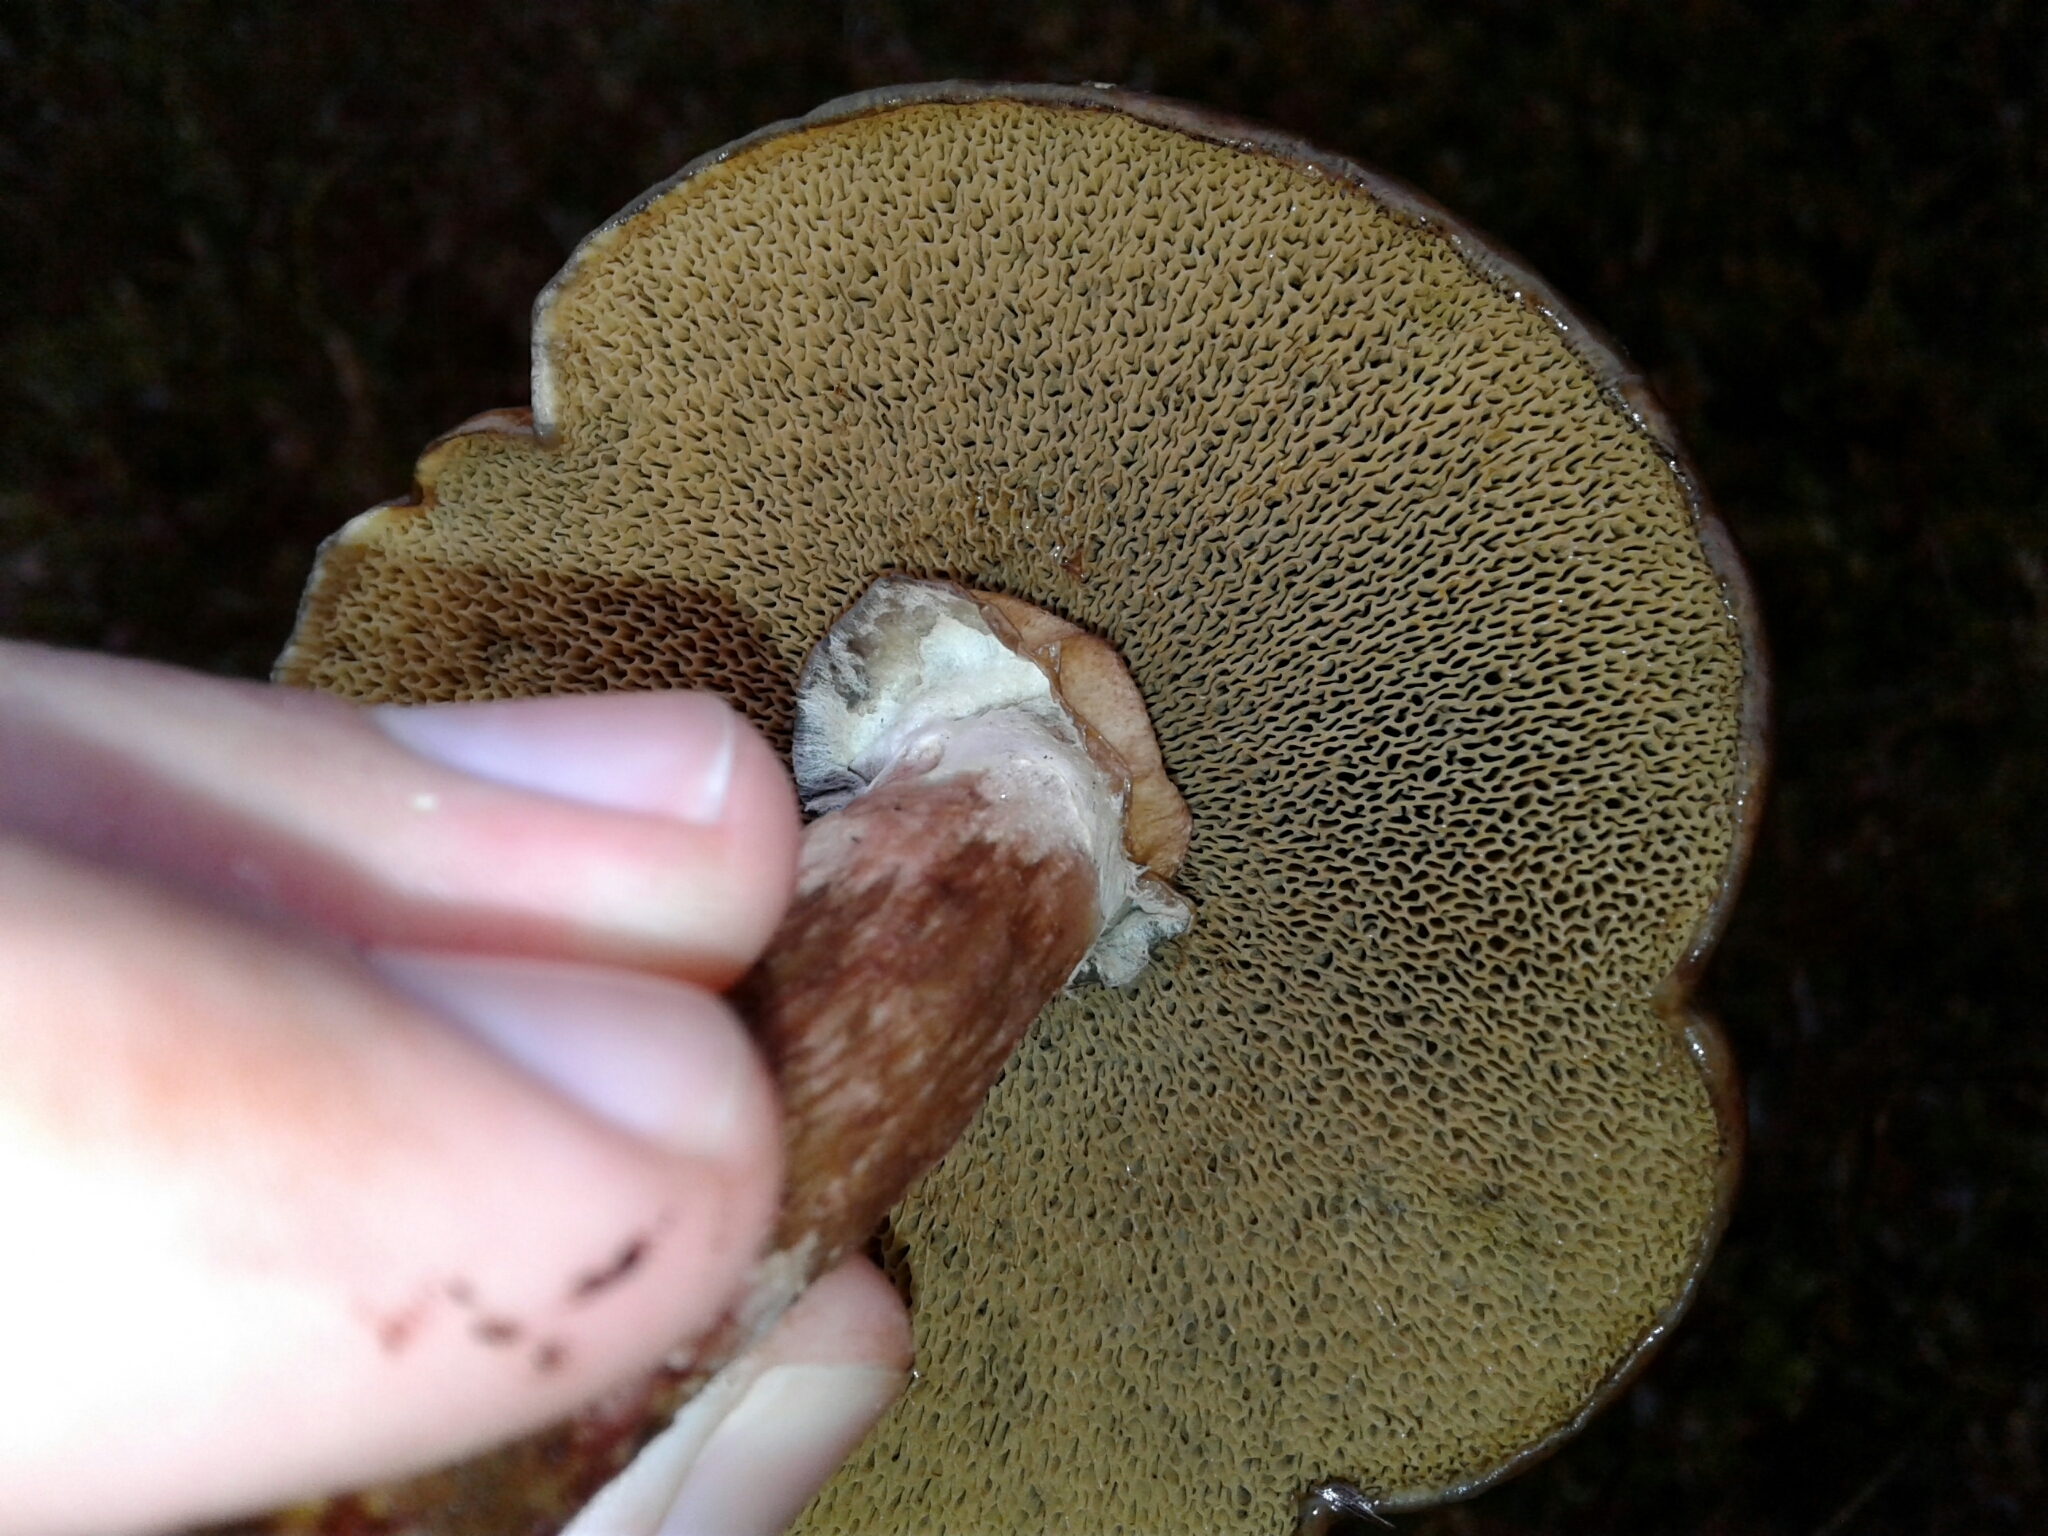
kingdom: Fungi
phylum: Basidiomycota
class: Agaricomycetes
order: Boletales
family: Suillaceae
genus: Boletinus
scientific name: Boletinus spectabilis
